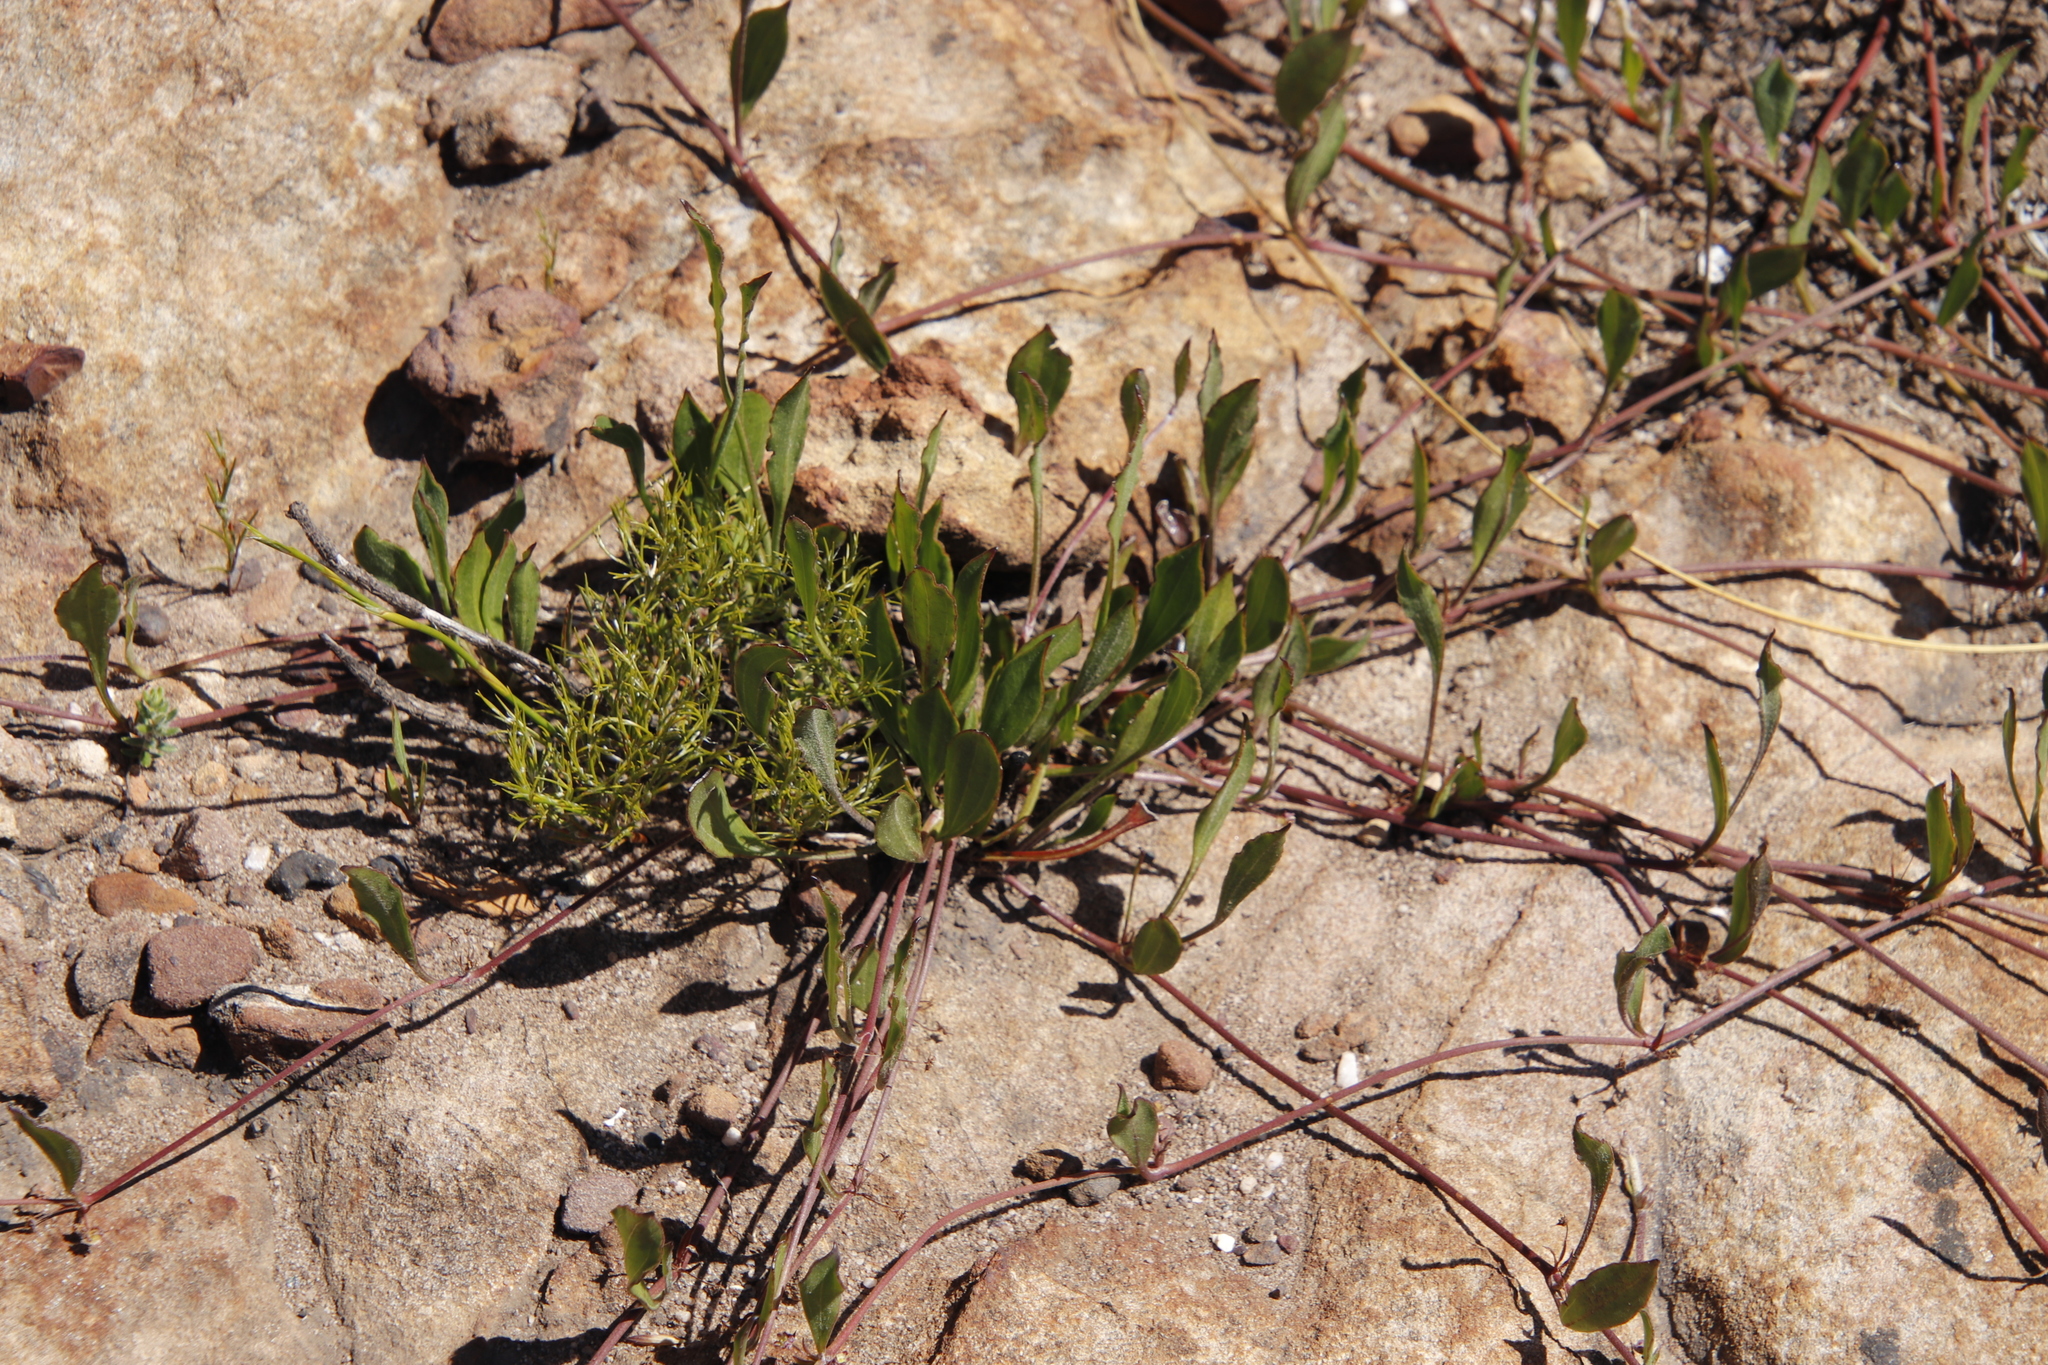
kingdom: Plantae
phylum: Tracheophyta
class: Magnoliopsida
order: Apiales
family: Apiaceae
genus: Centella
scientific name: Centella glabrata
